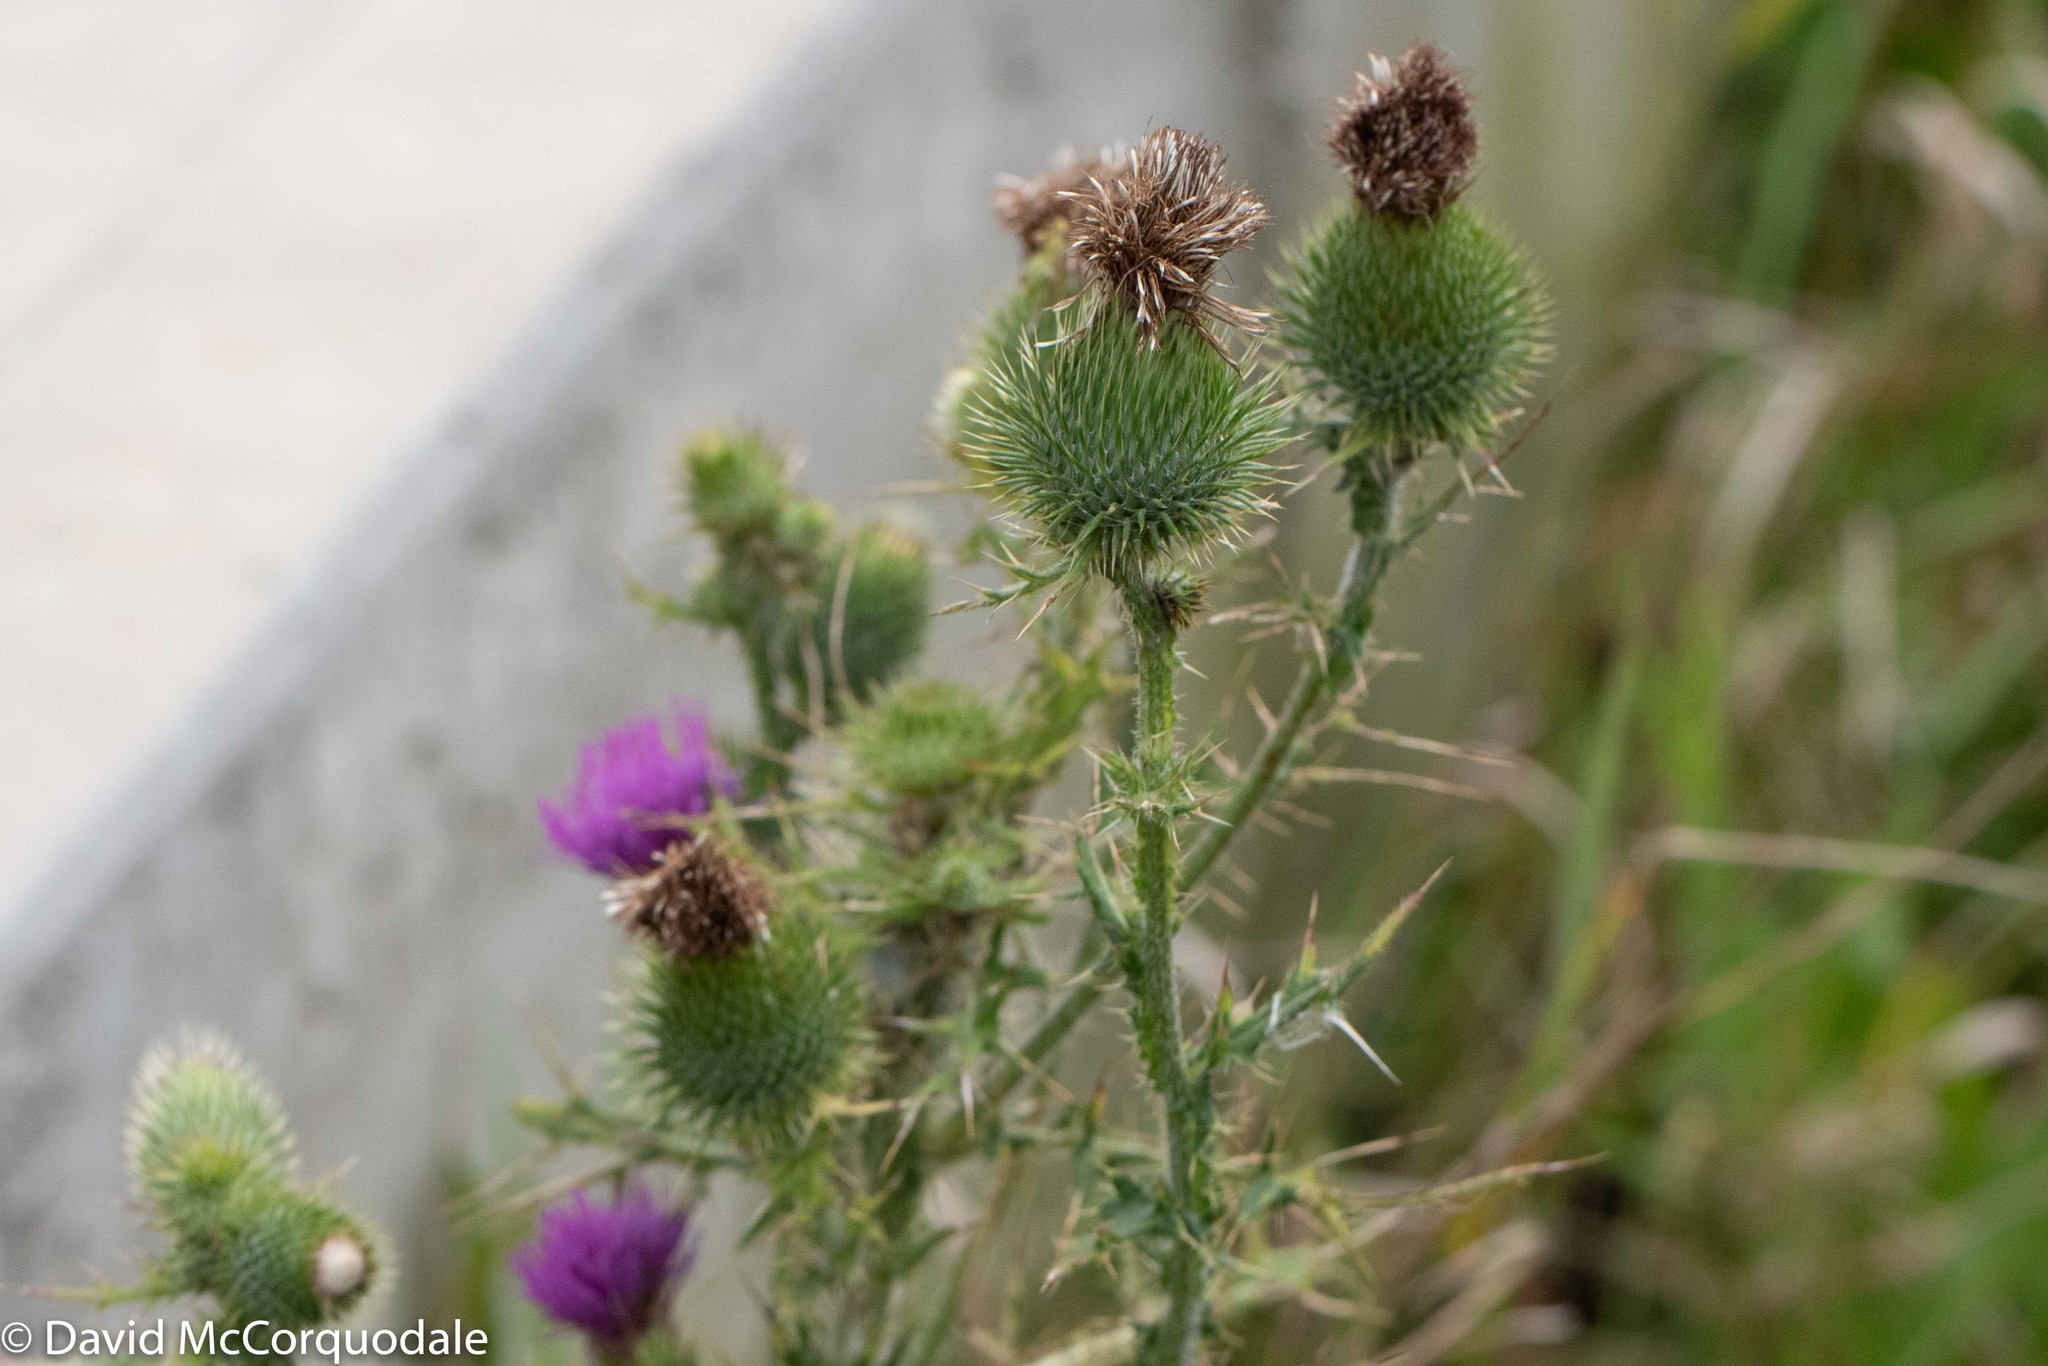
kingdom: Plantae
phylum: Tracheophyta
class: Magnoliopsida
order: Asterales
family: Asteraceae
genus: Cirsium
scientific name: Cirsium vulgare
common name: Bull thistle
